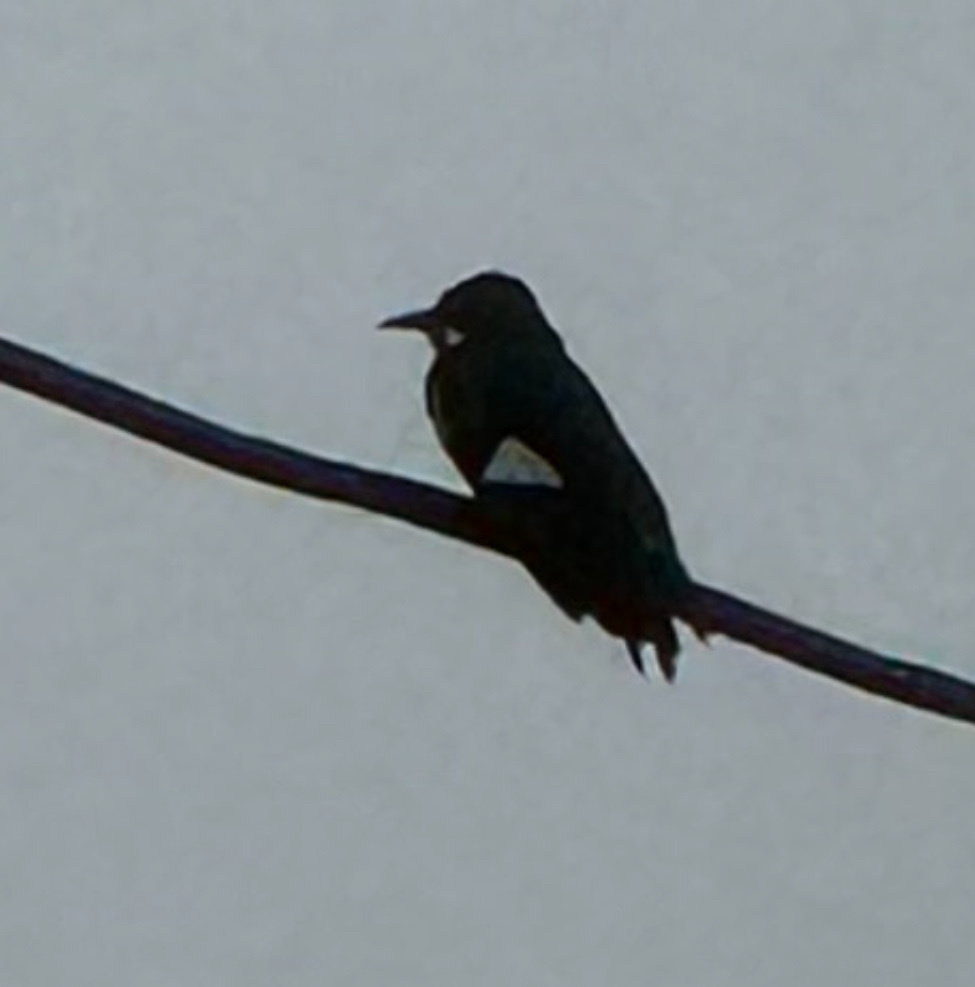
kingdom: Animalia
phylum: Chordata
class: Aves
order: Piciformes
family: Picidae
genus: Melanerpes
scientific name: Melanerpes formicivorus
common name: Acorn woodpecker
